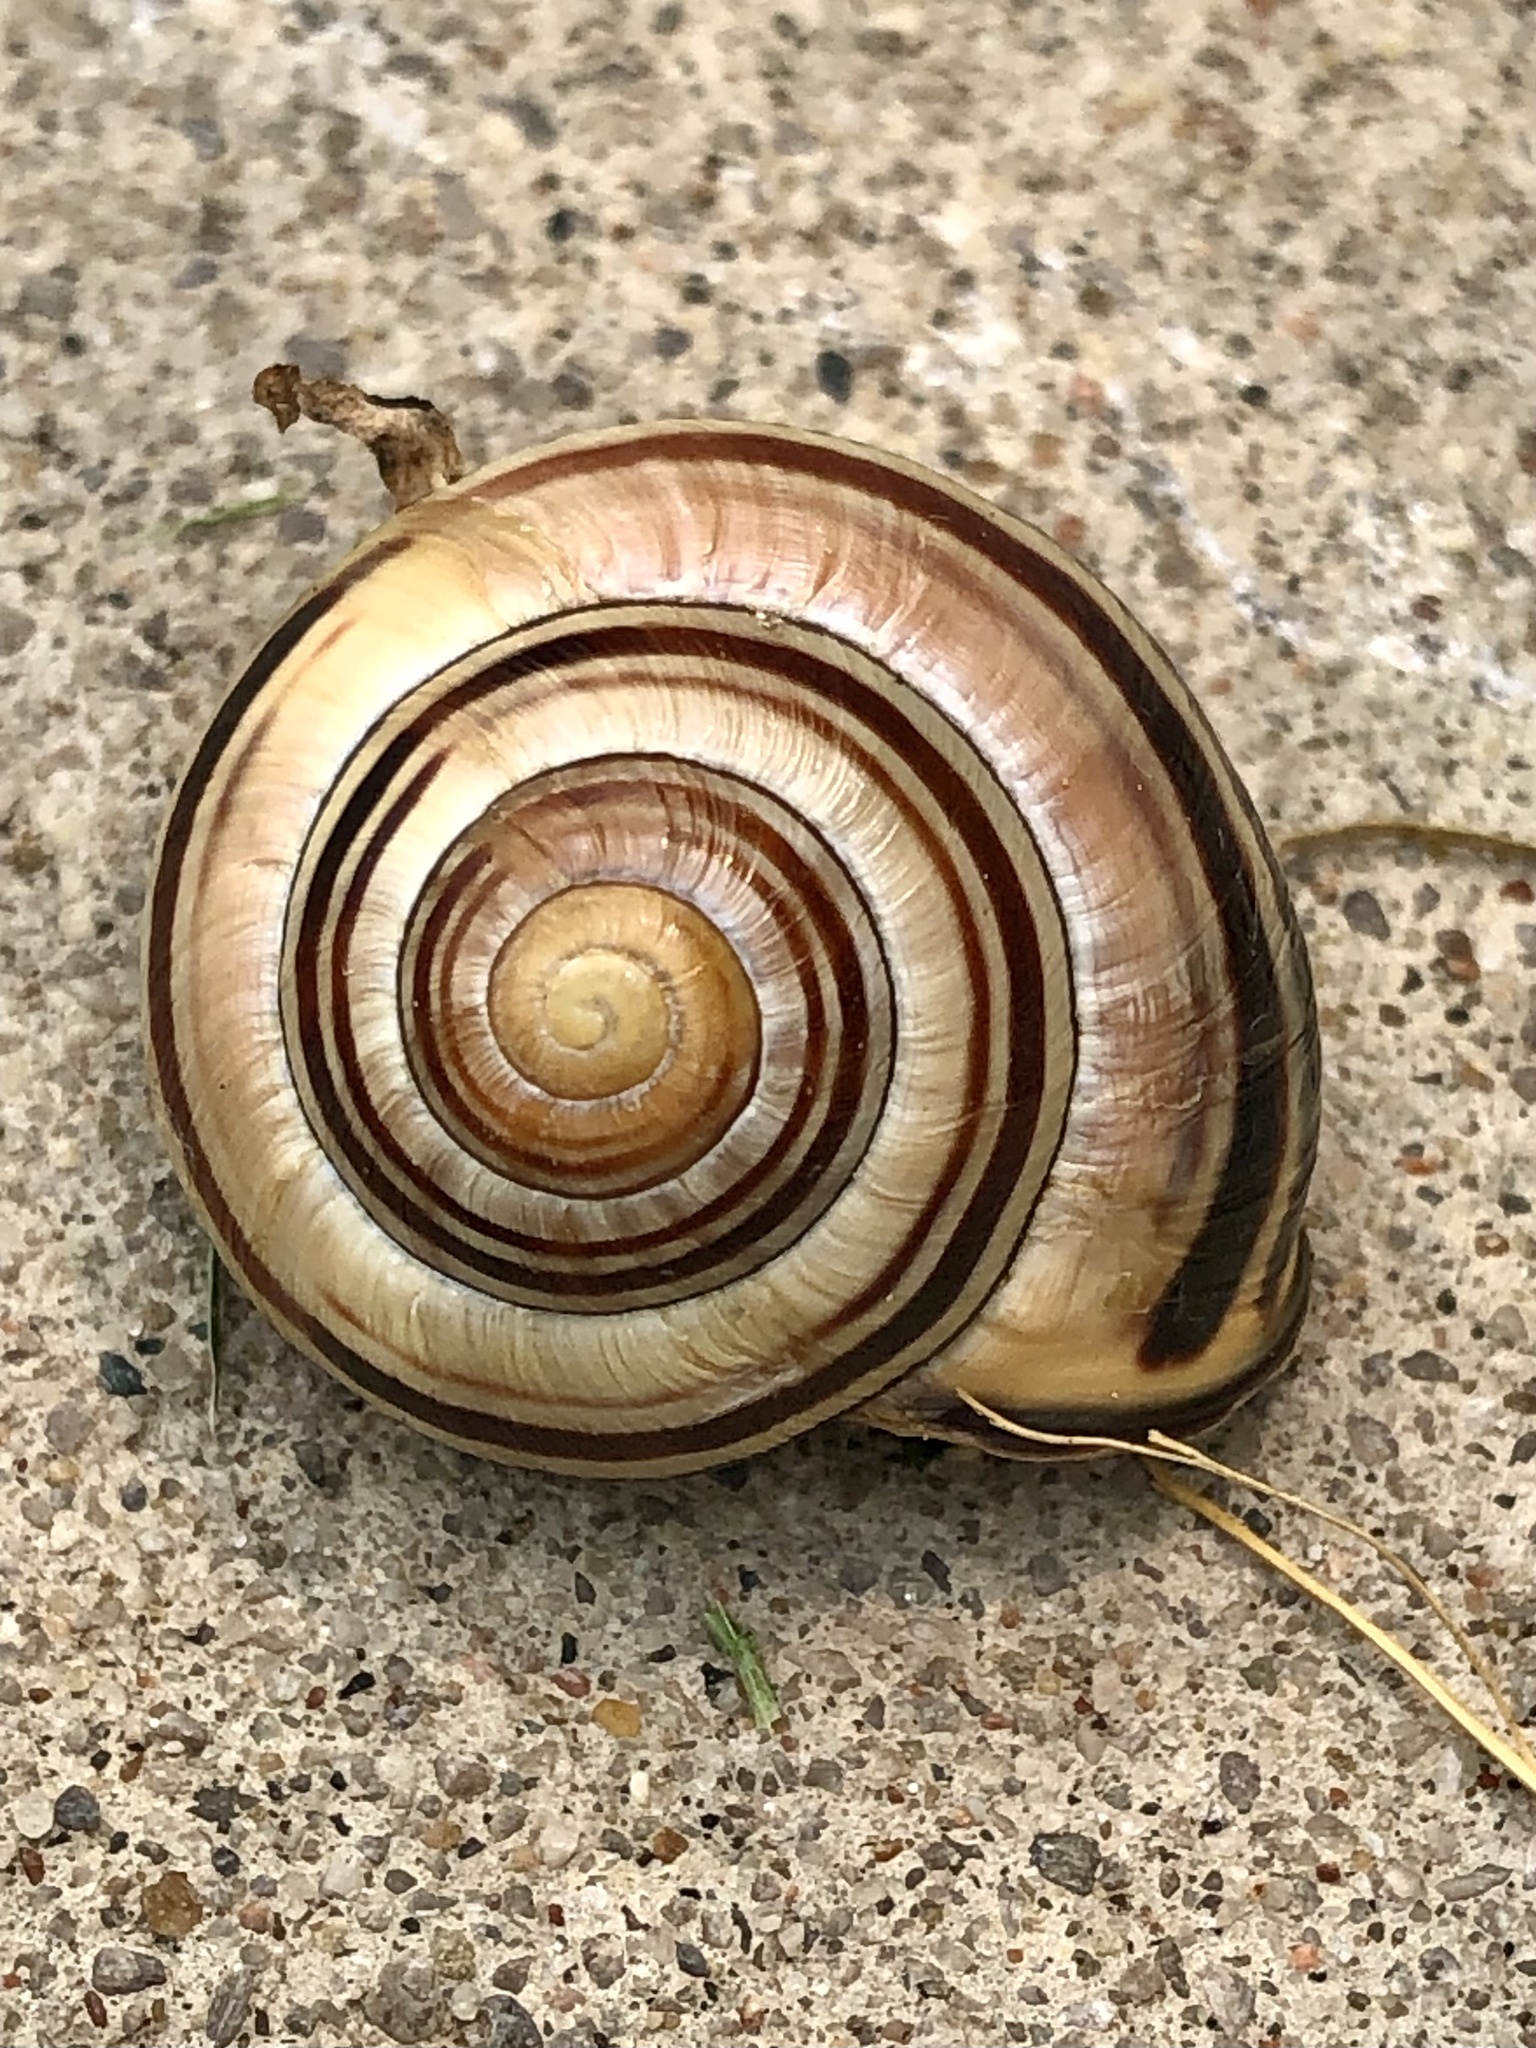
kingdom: Animalia
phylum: Mollusca
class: Gastropoda
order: Stylommatophora
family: Helicidae
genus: Cepaea
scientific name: Cepaea nemoralis
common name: Grovesnail
